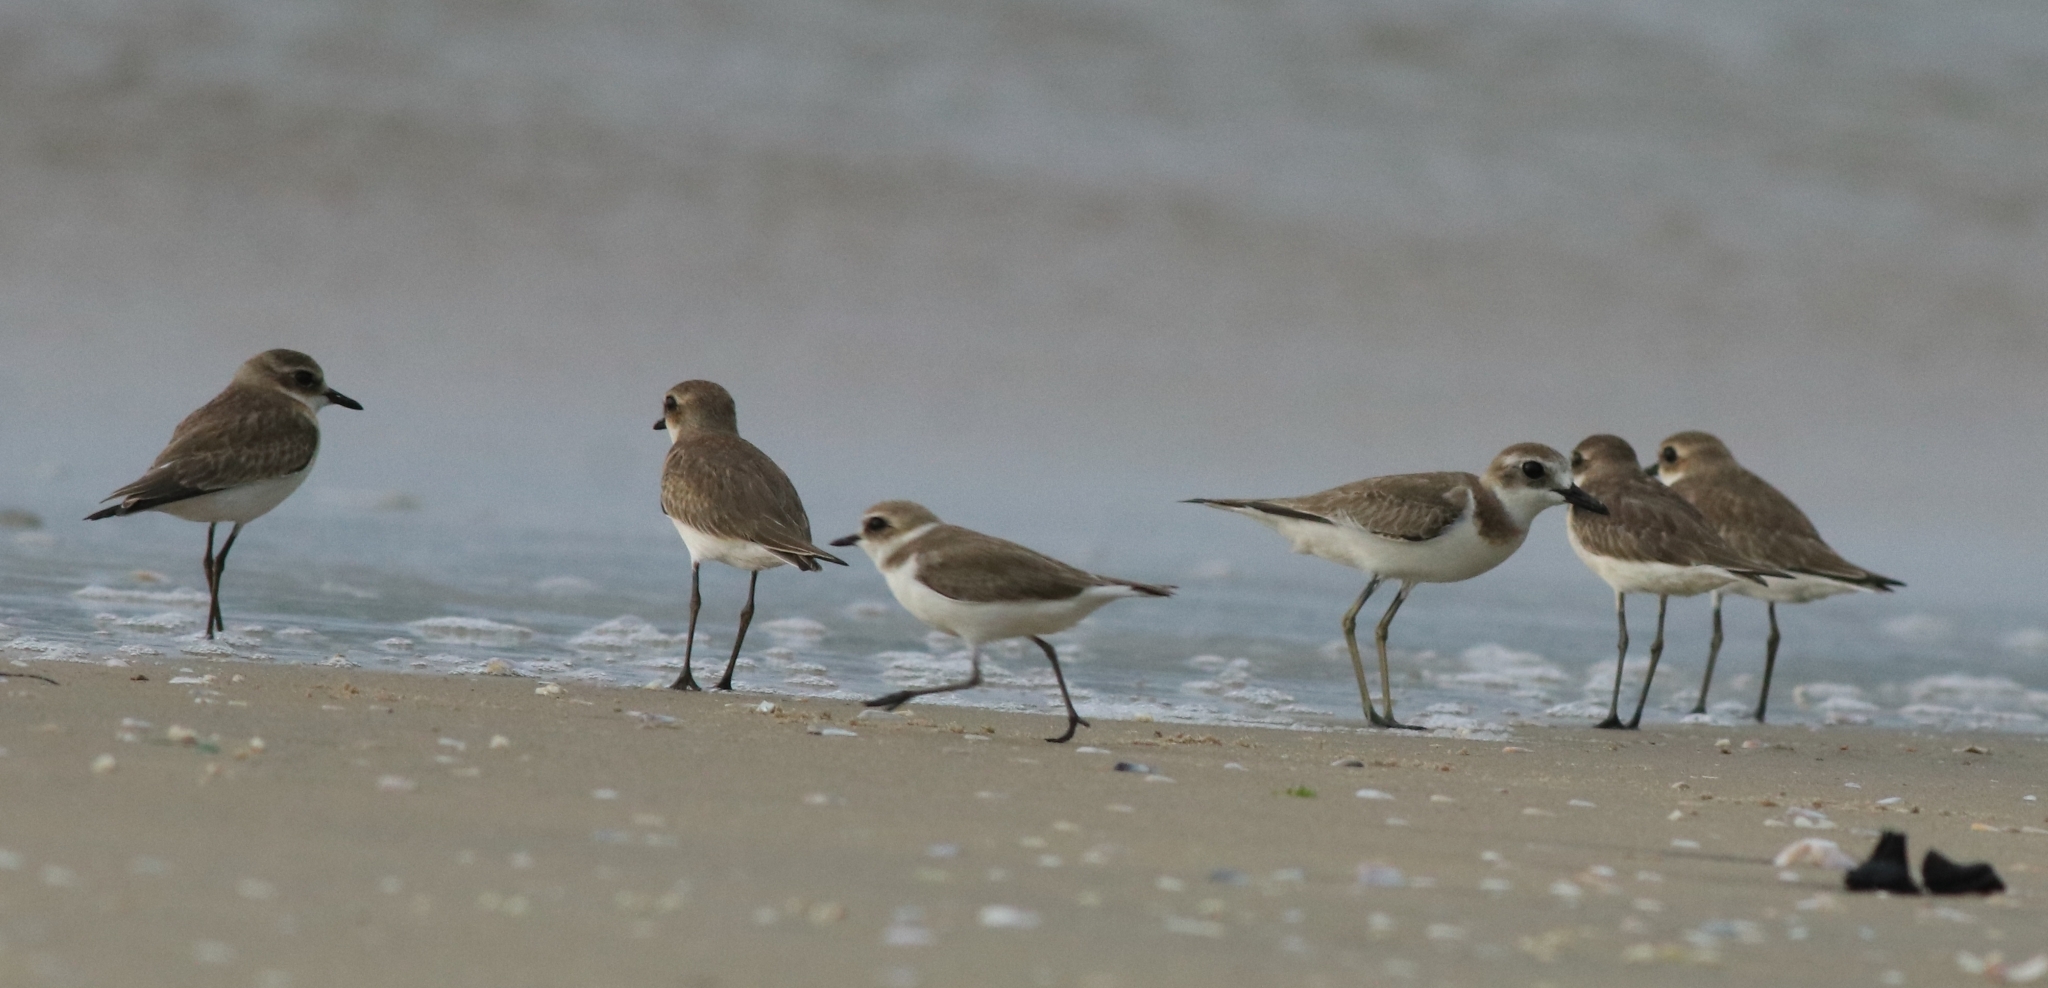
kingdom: Animalia
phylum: Chordata
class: Aves
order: Charadriiformes
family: Charadriidae
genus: Anarhynchus
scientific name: Anarhynchus
